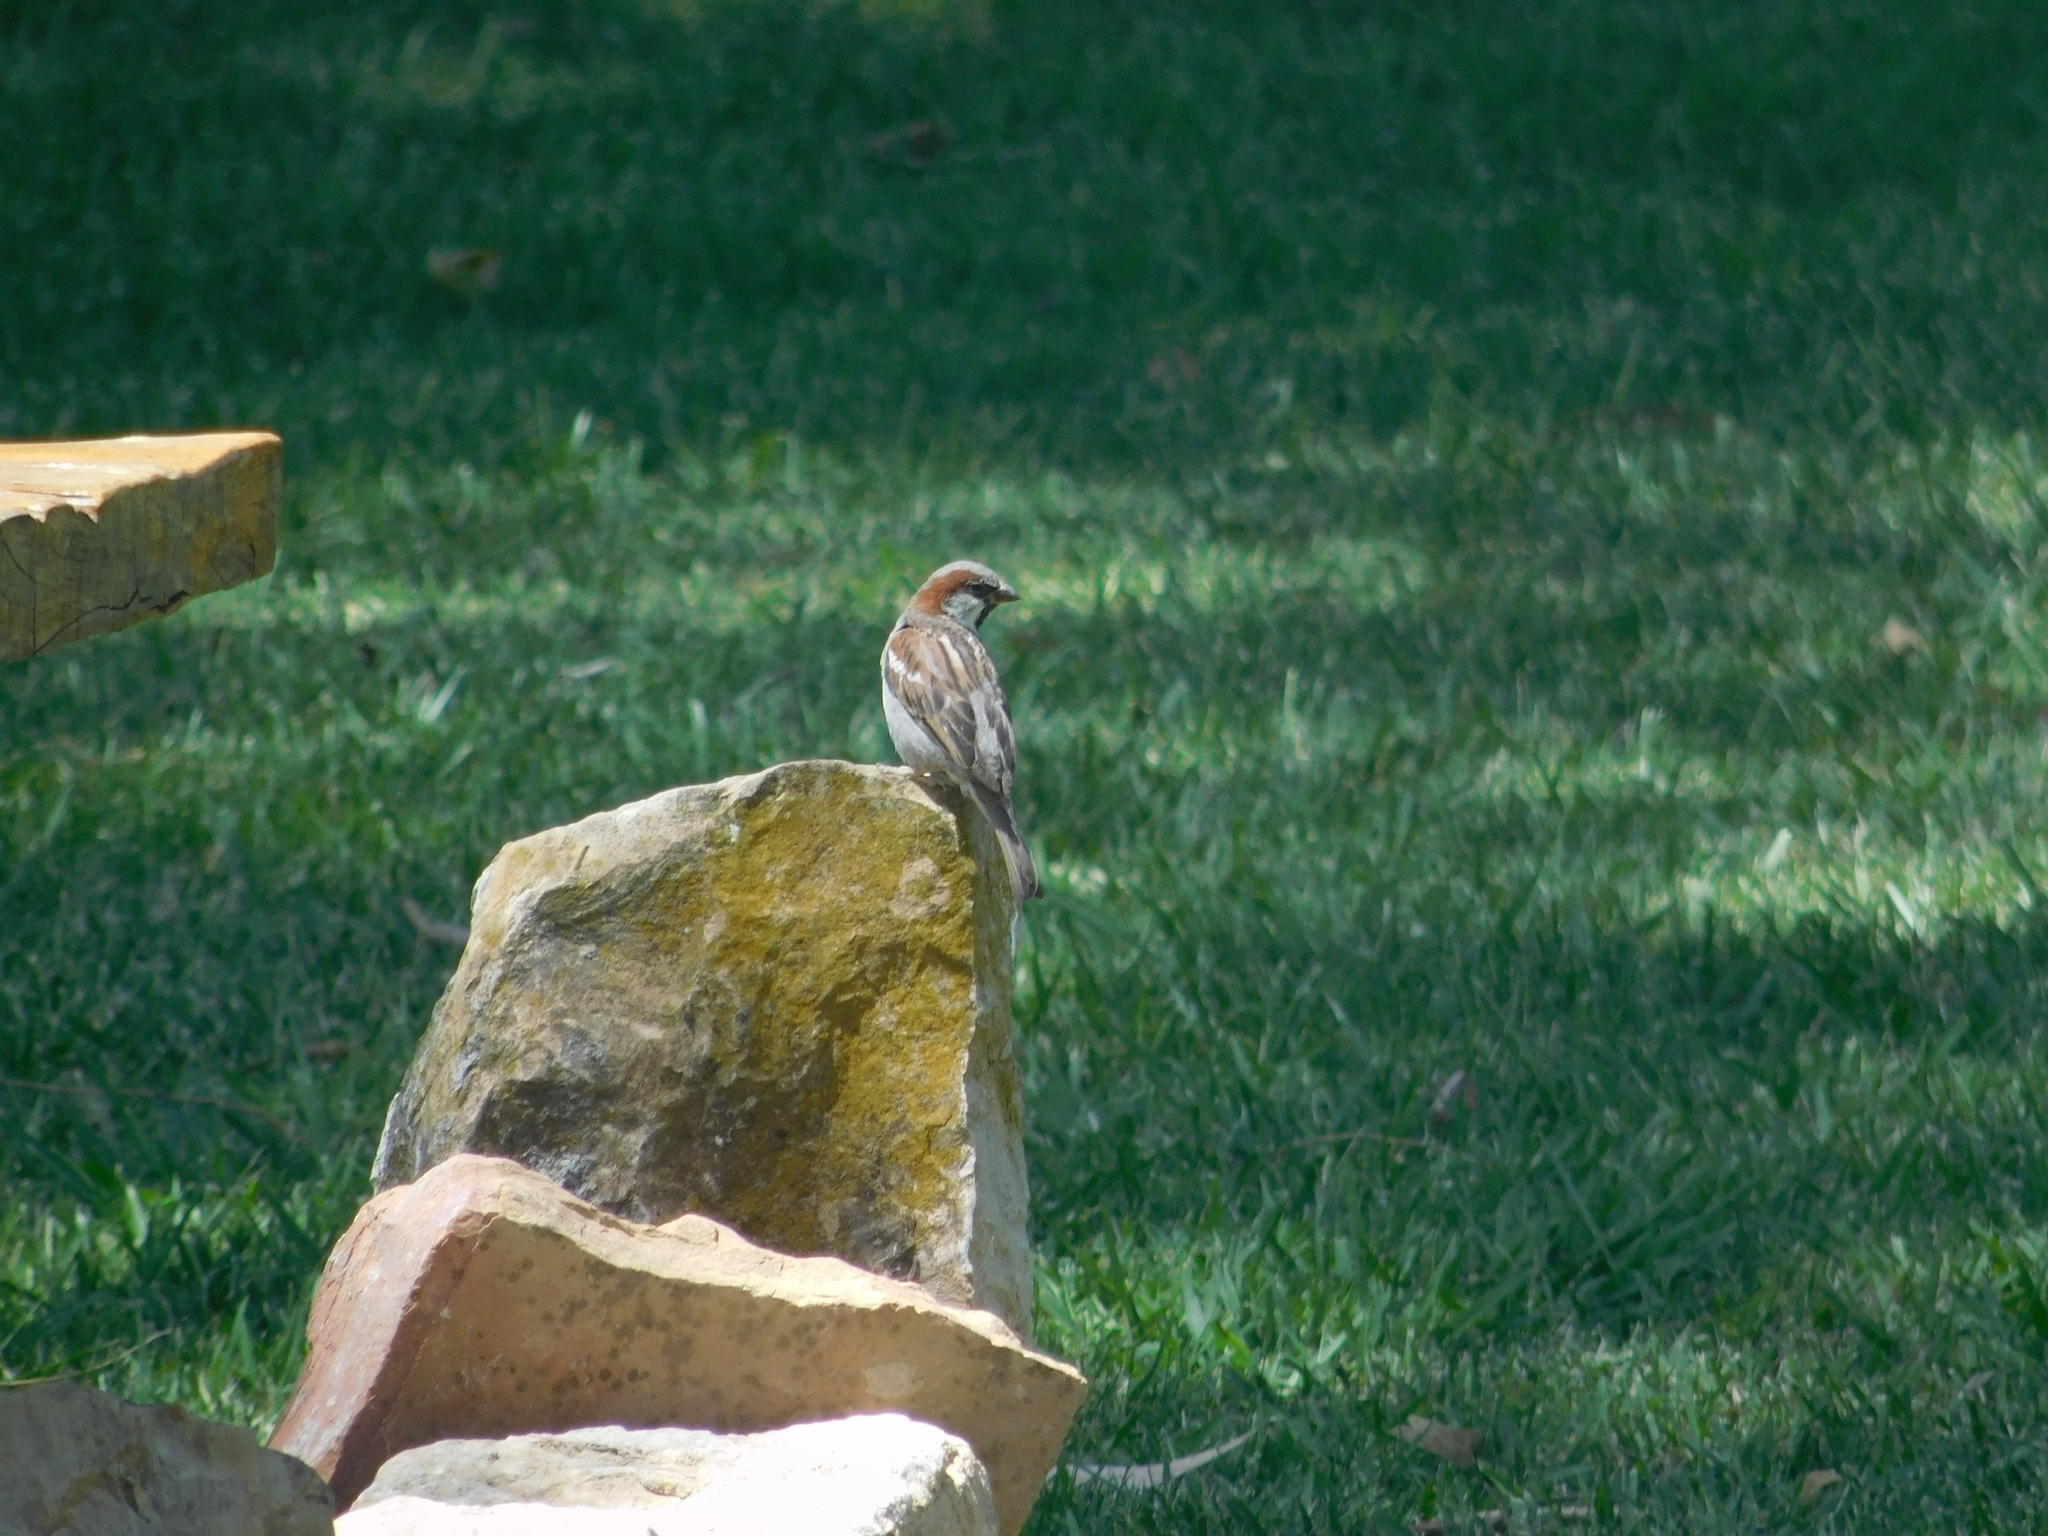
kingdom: Animalia
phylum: Chordata
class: Aves
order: Passeriformes
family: Passeridae
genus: Passer
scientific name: Passer domesticus
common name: House sparrow
